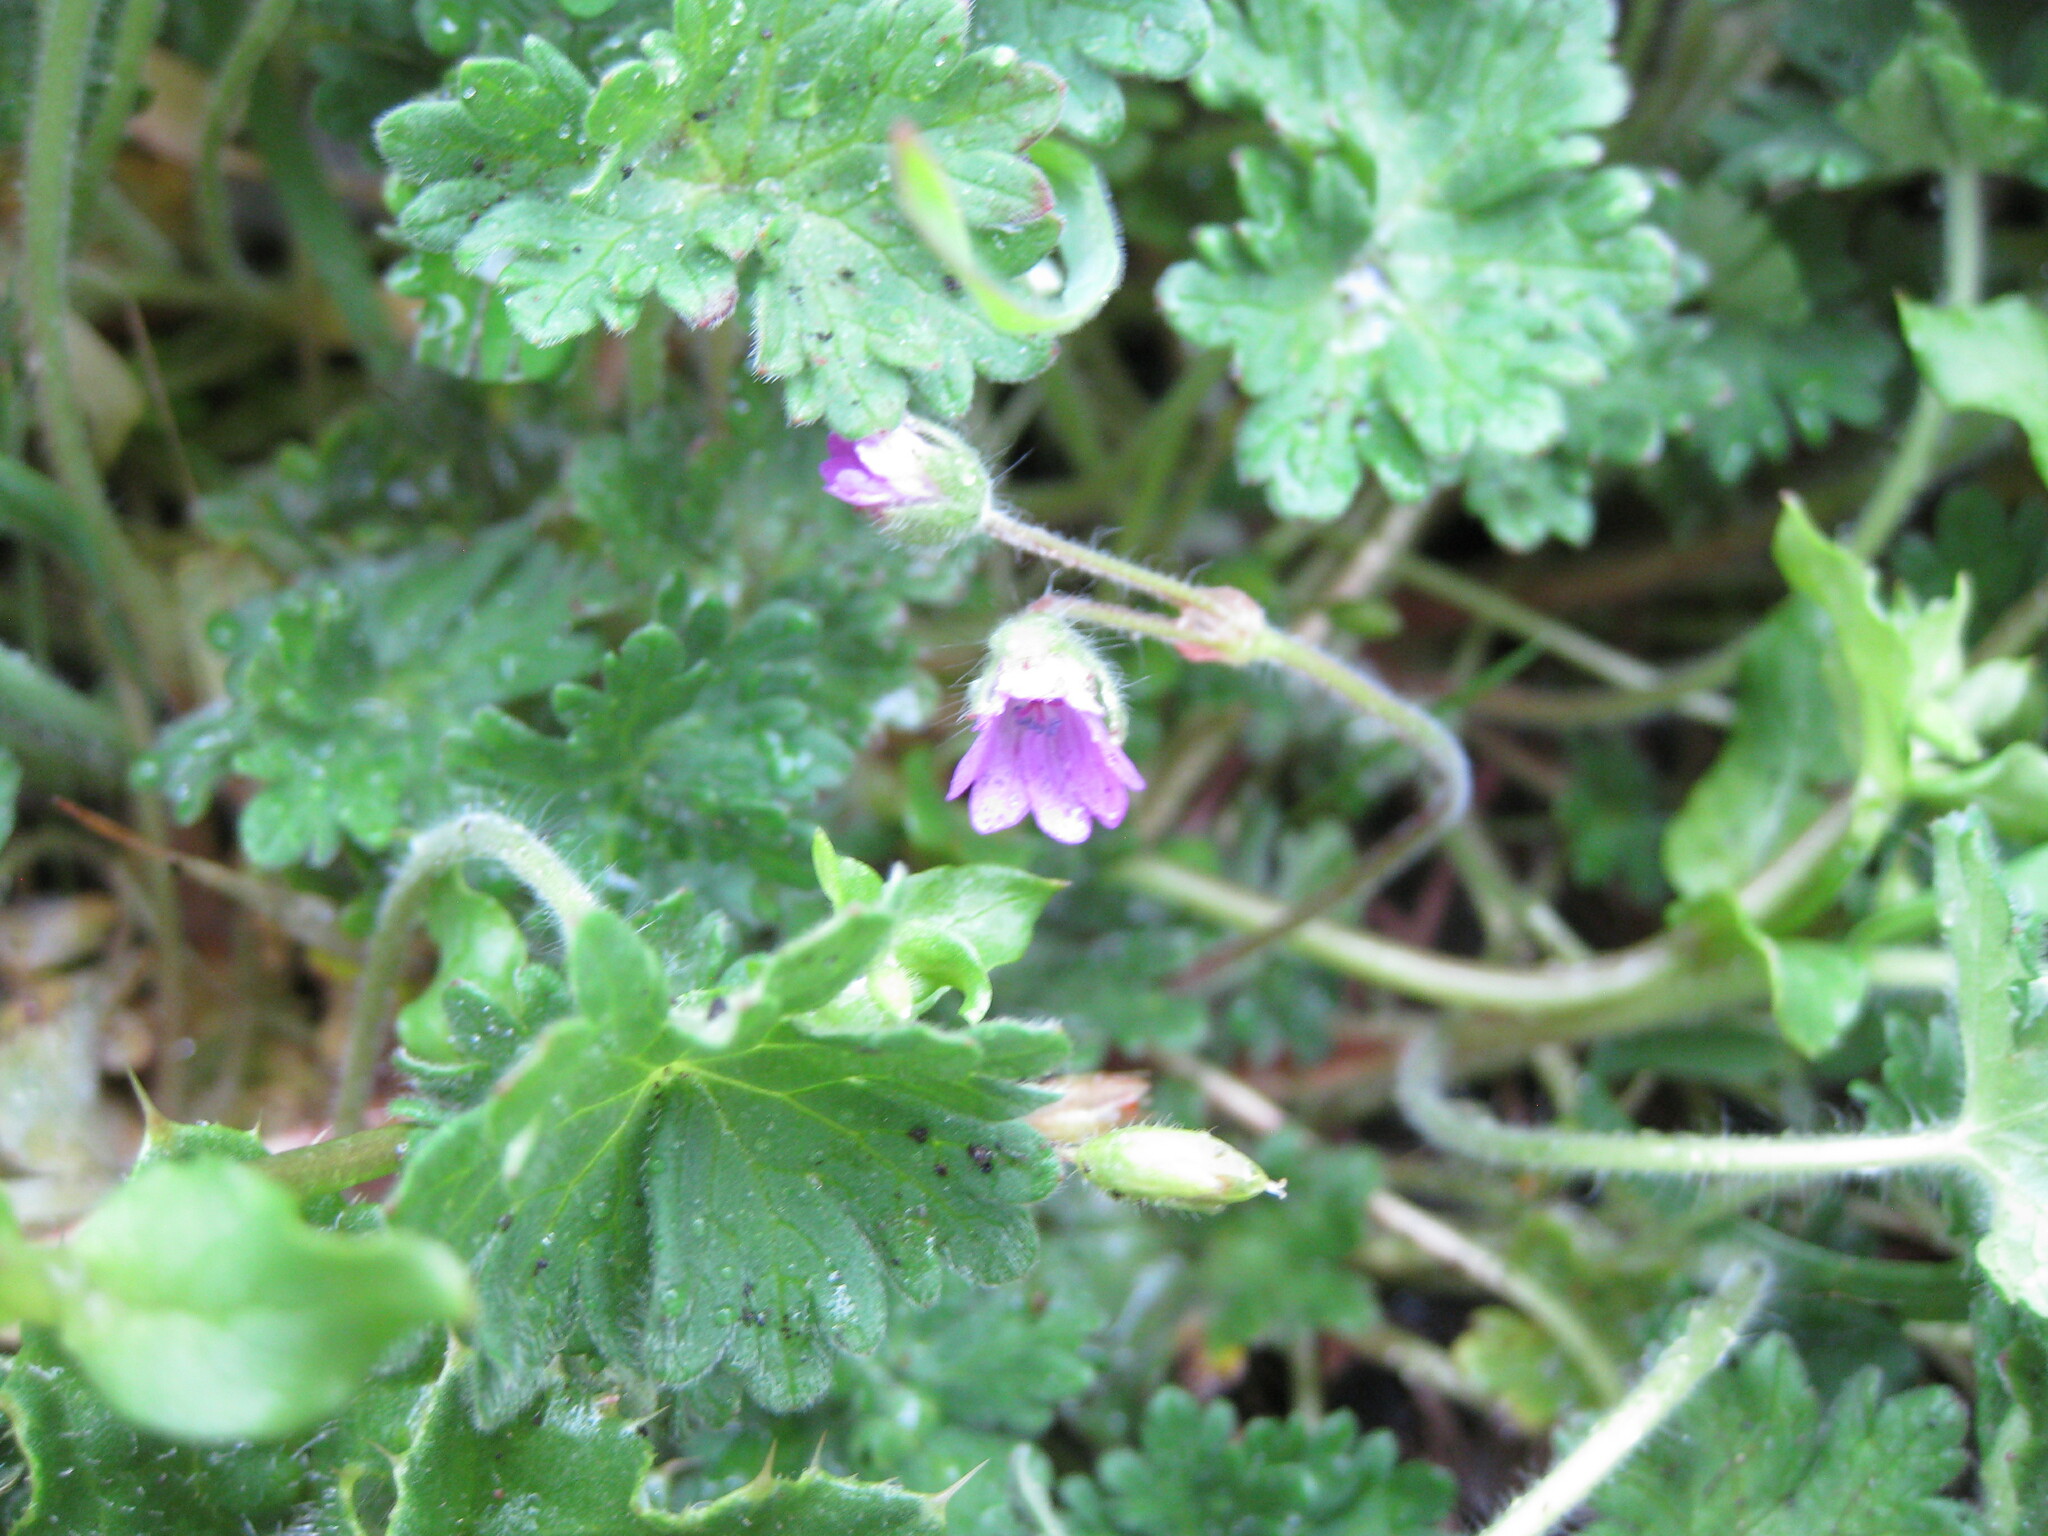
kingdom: Plantae
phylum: Tracheophyta
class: Magnoliopsida
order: Geraniales
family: Geraniaceae
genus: Geranium
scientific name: Geranium molle
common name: Dove's-foot crane's-bill
